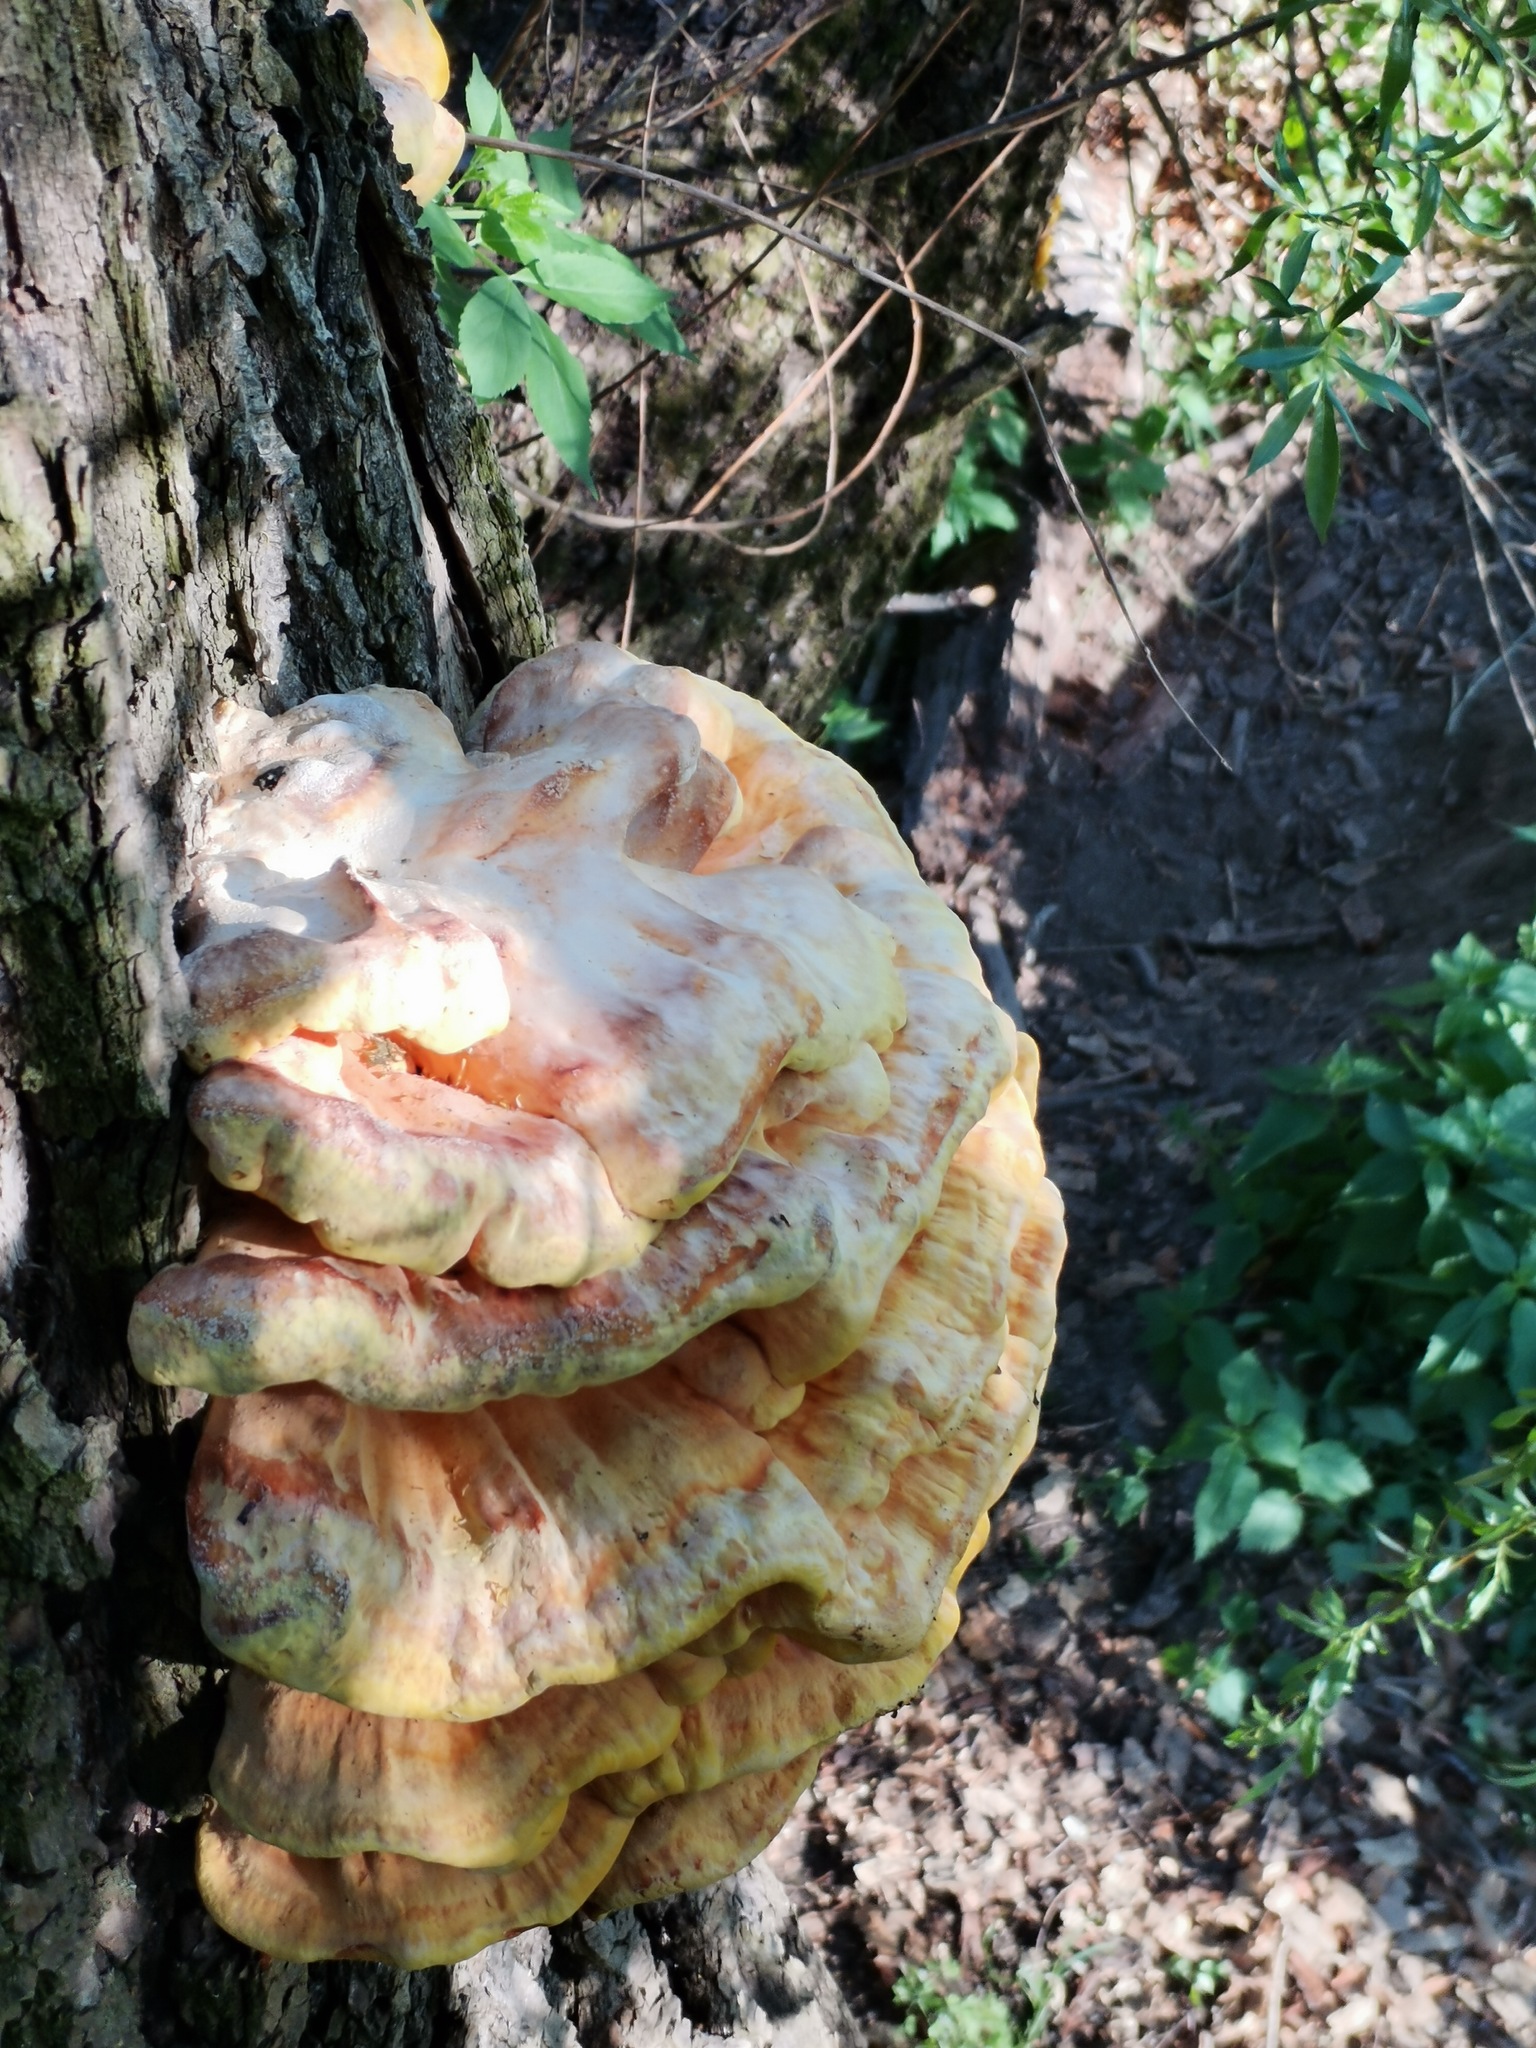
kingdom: Fungi
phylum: Basidiomycota
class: Agaricomycetes
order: Polyporales
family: Laetiporaceae
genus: Laetiporus
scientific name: Laetiporus sulphureus
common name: Chicken of the woods
